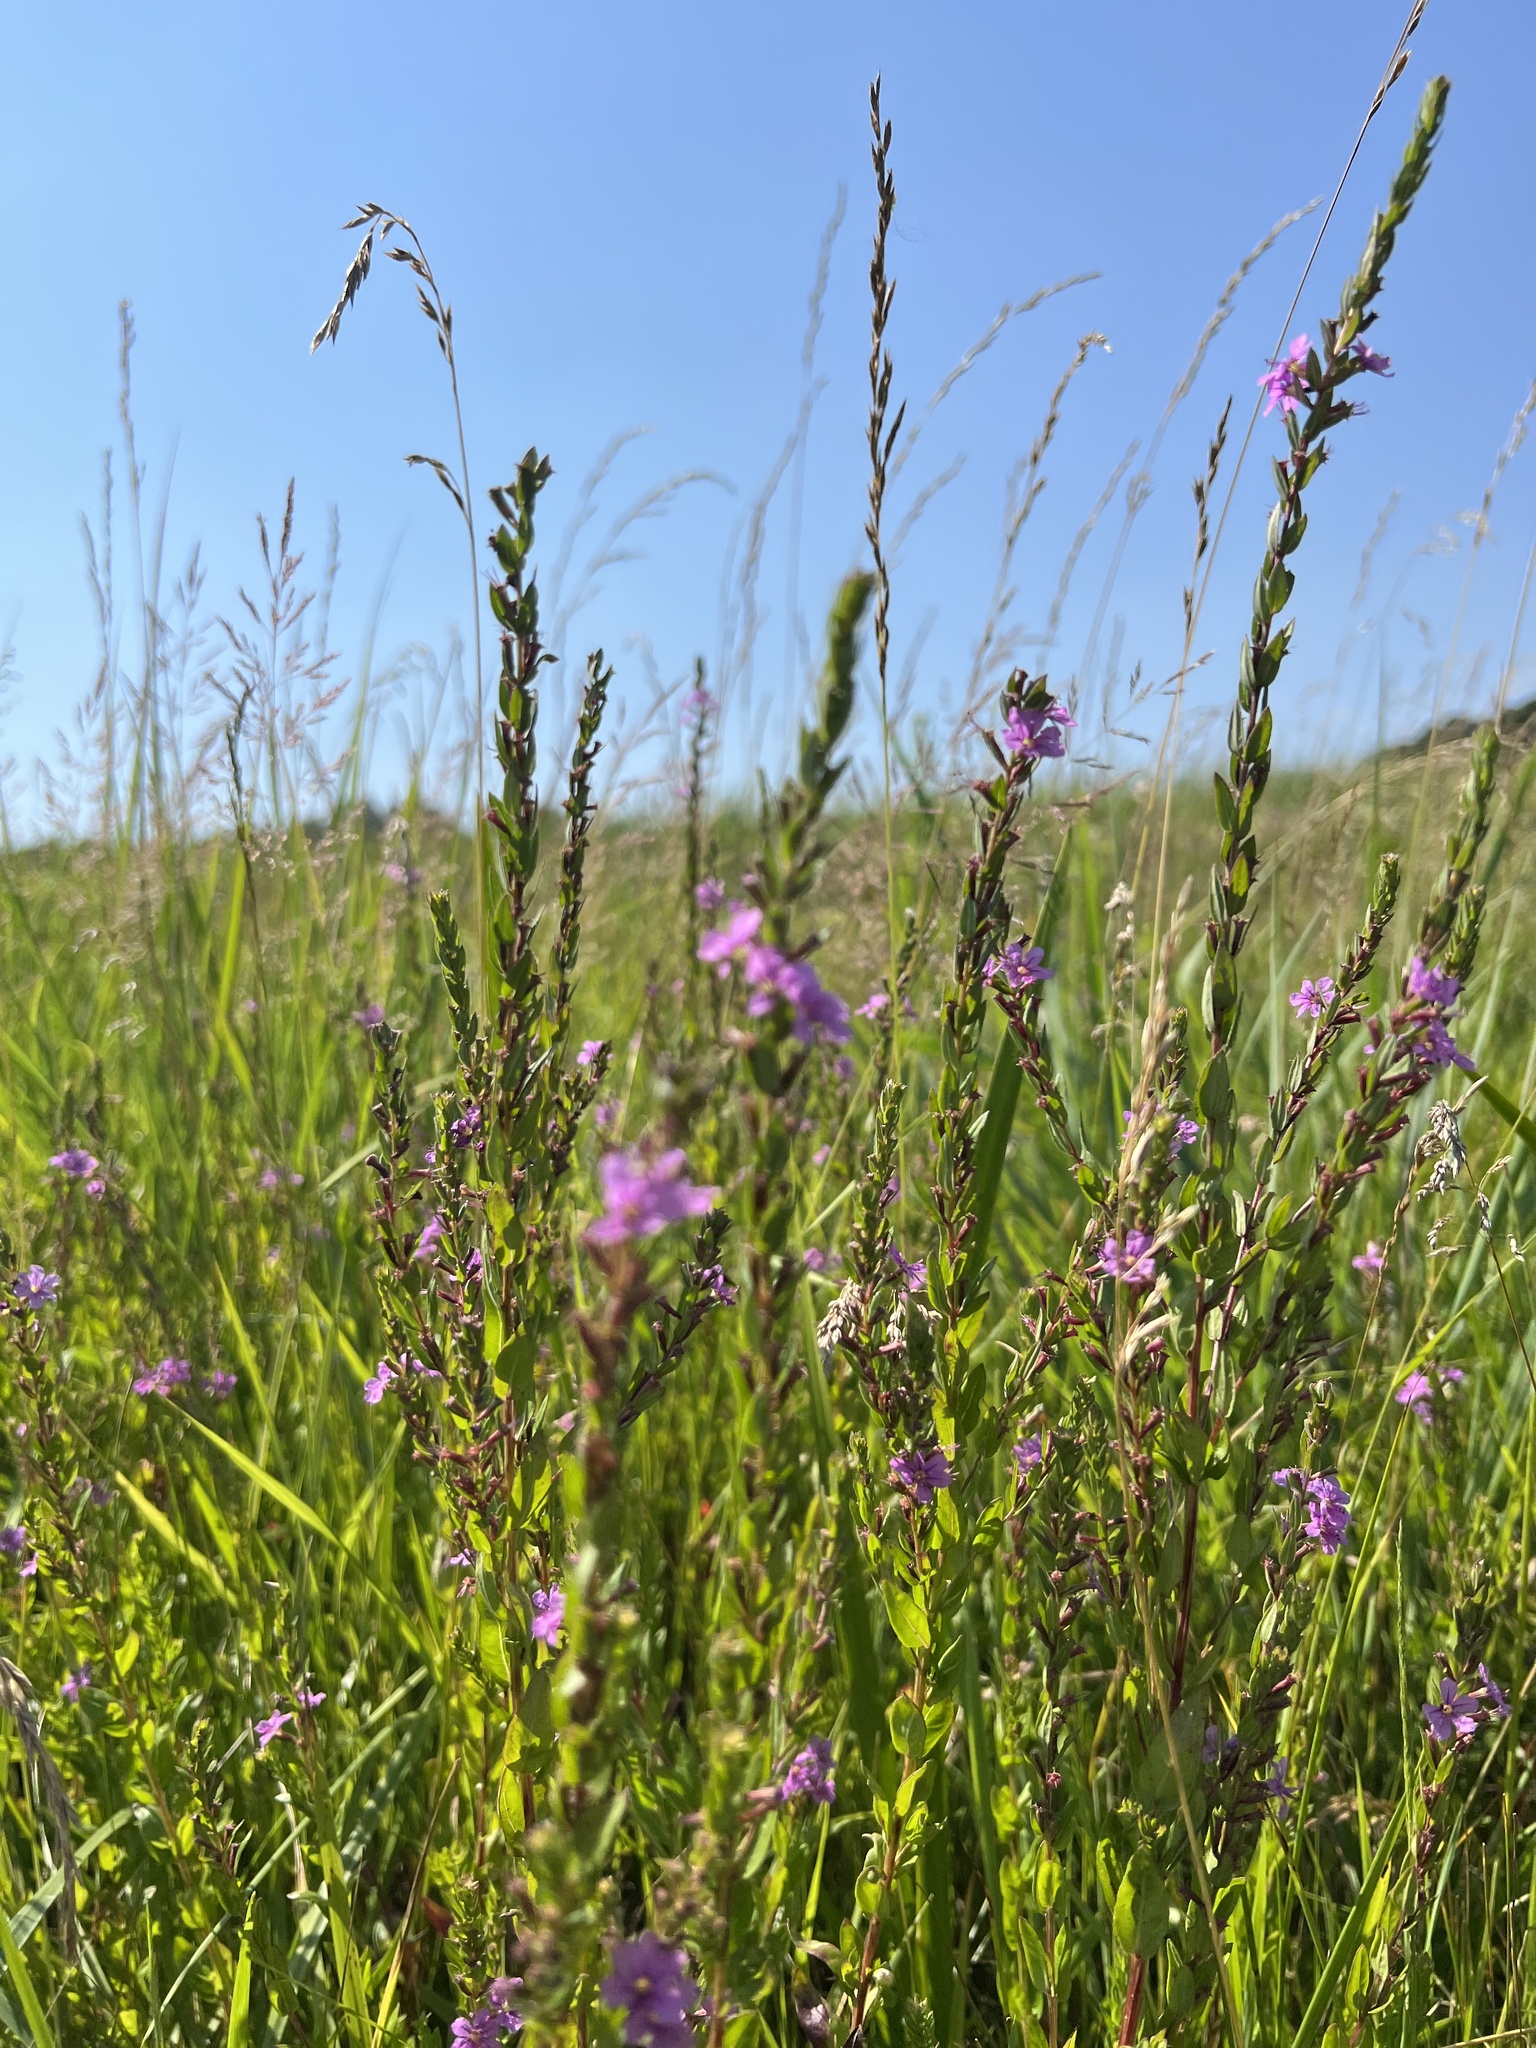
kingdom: Plantae
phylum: Tracheophyta
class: Magnoliopsida
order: Myrtales
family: Lythraceae
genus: Lythrum
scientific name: Lythrum alatum
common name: Winged loosestrife
